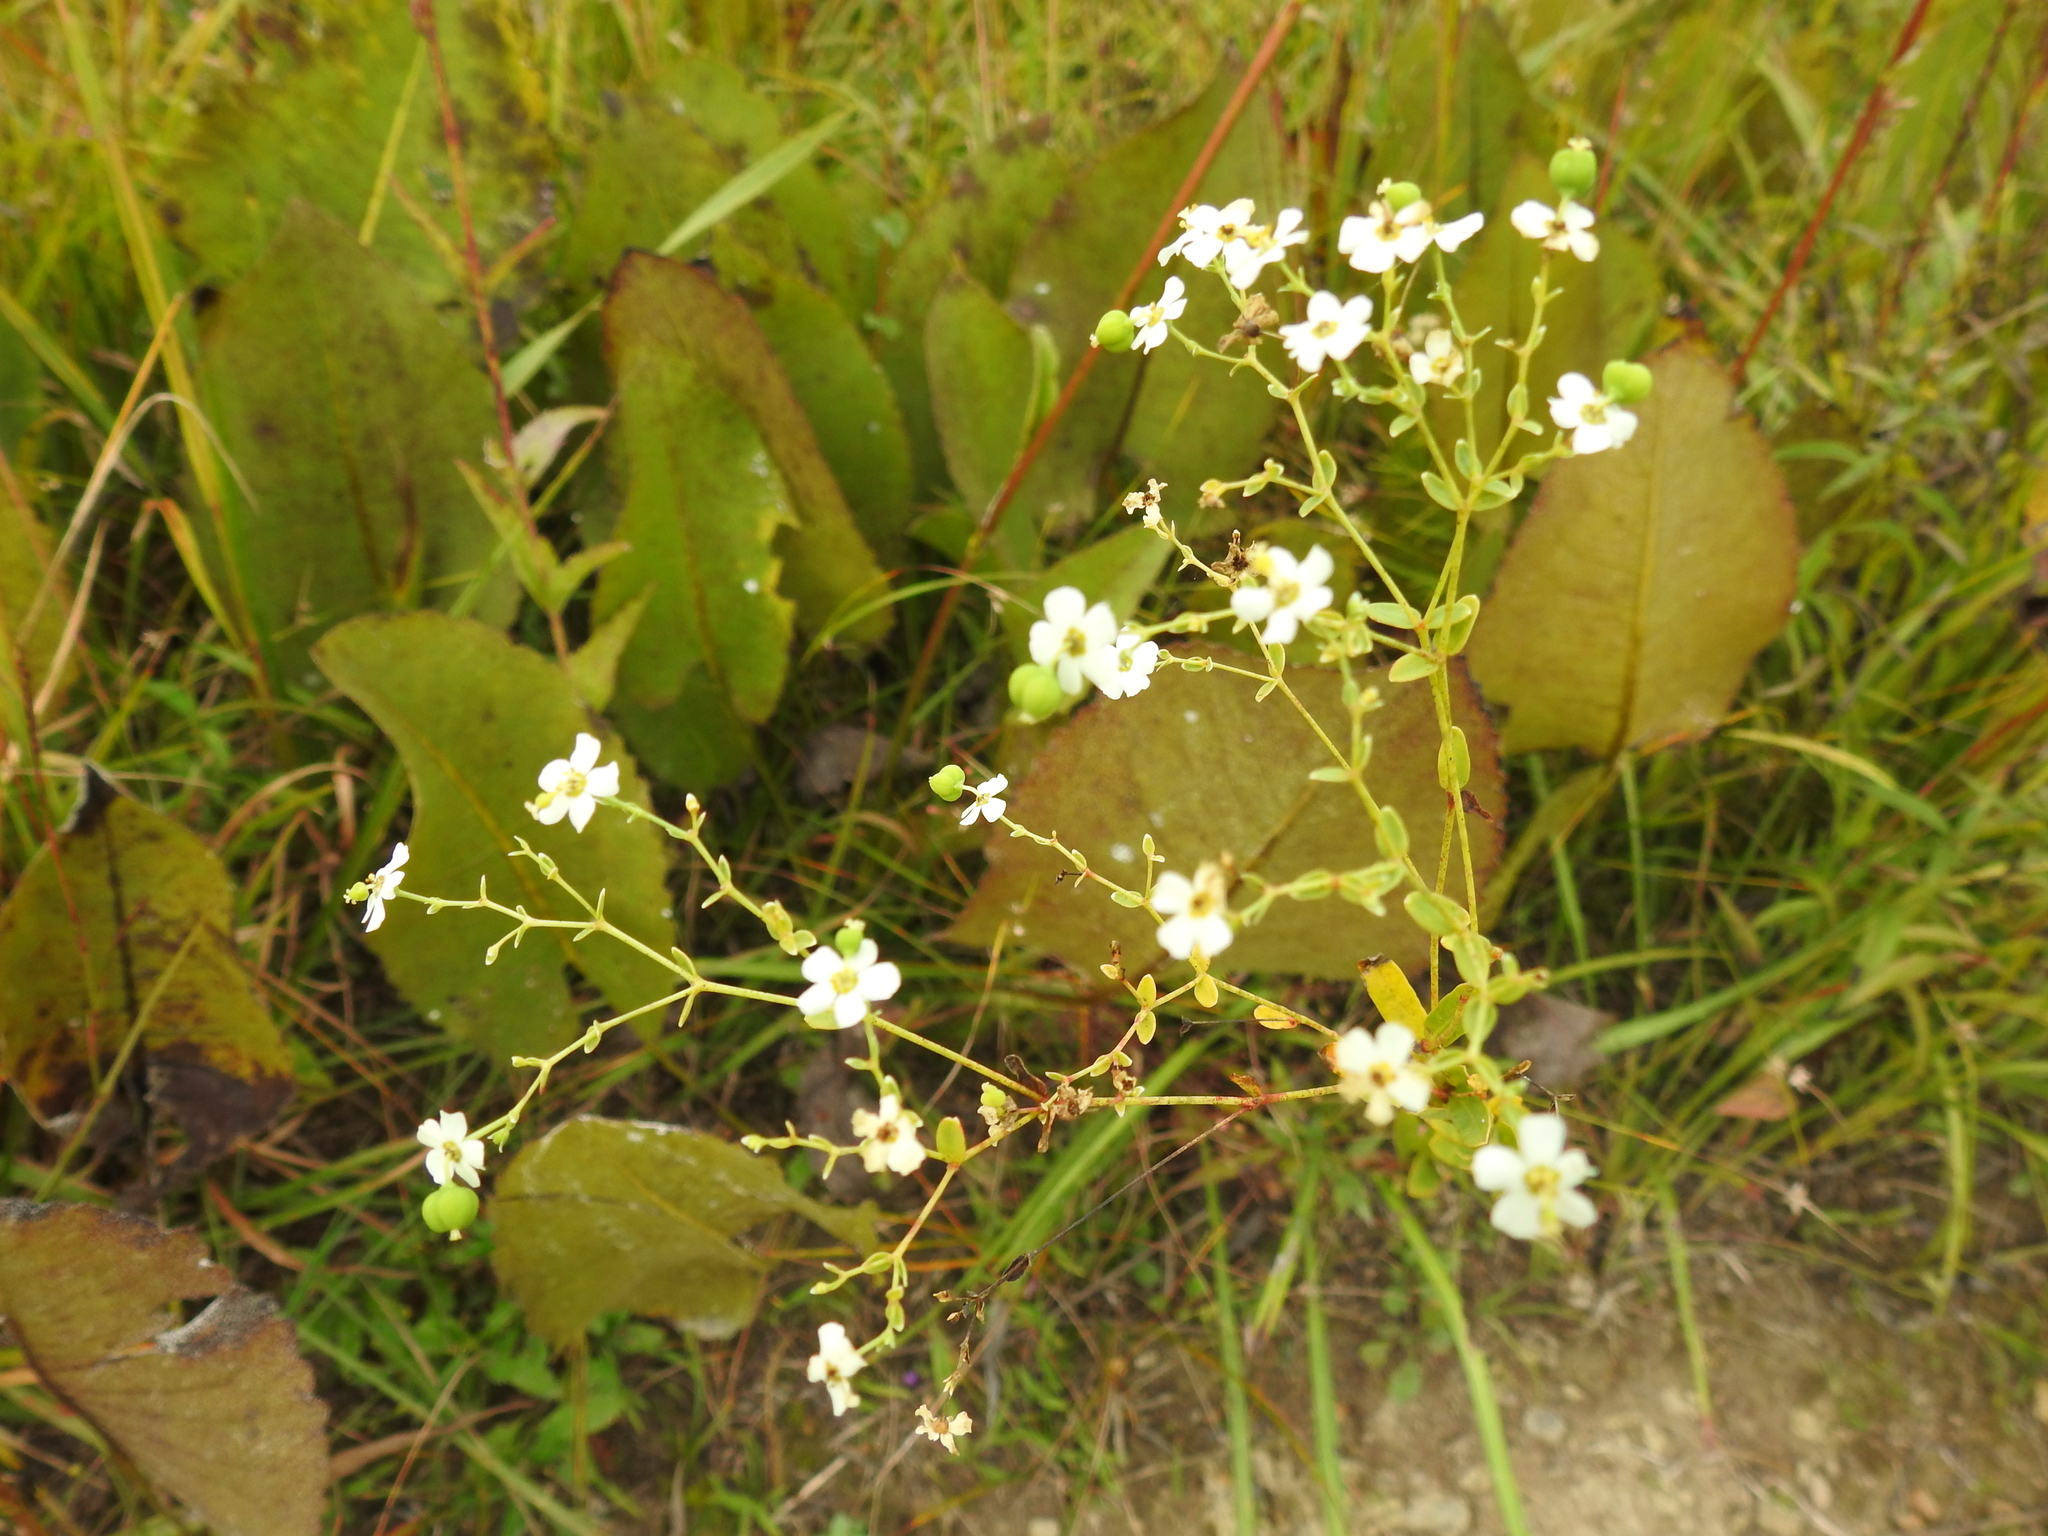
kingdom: Plantae
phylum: Tracheophyta
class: Magnoliopsida
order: Malpighiales
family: Euphorbiaceae
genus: Euphorbia
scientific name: Euphorbia corollata
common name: Flowering spurge
